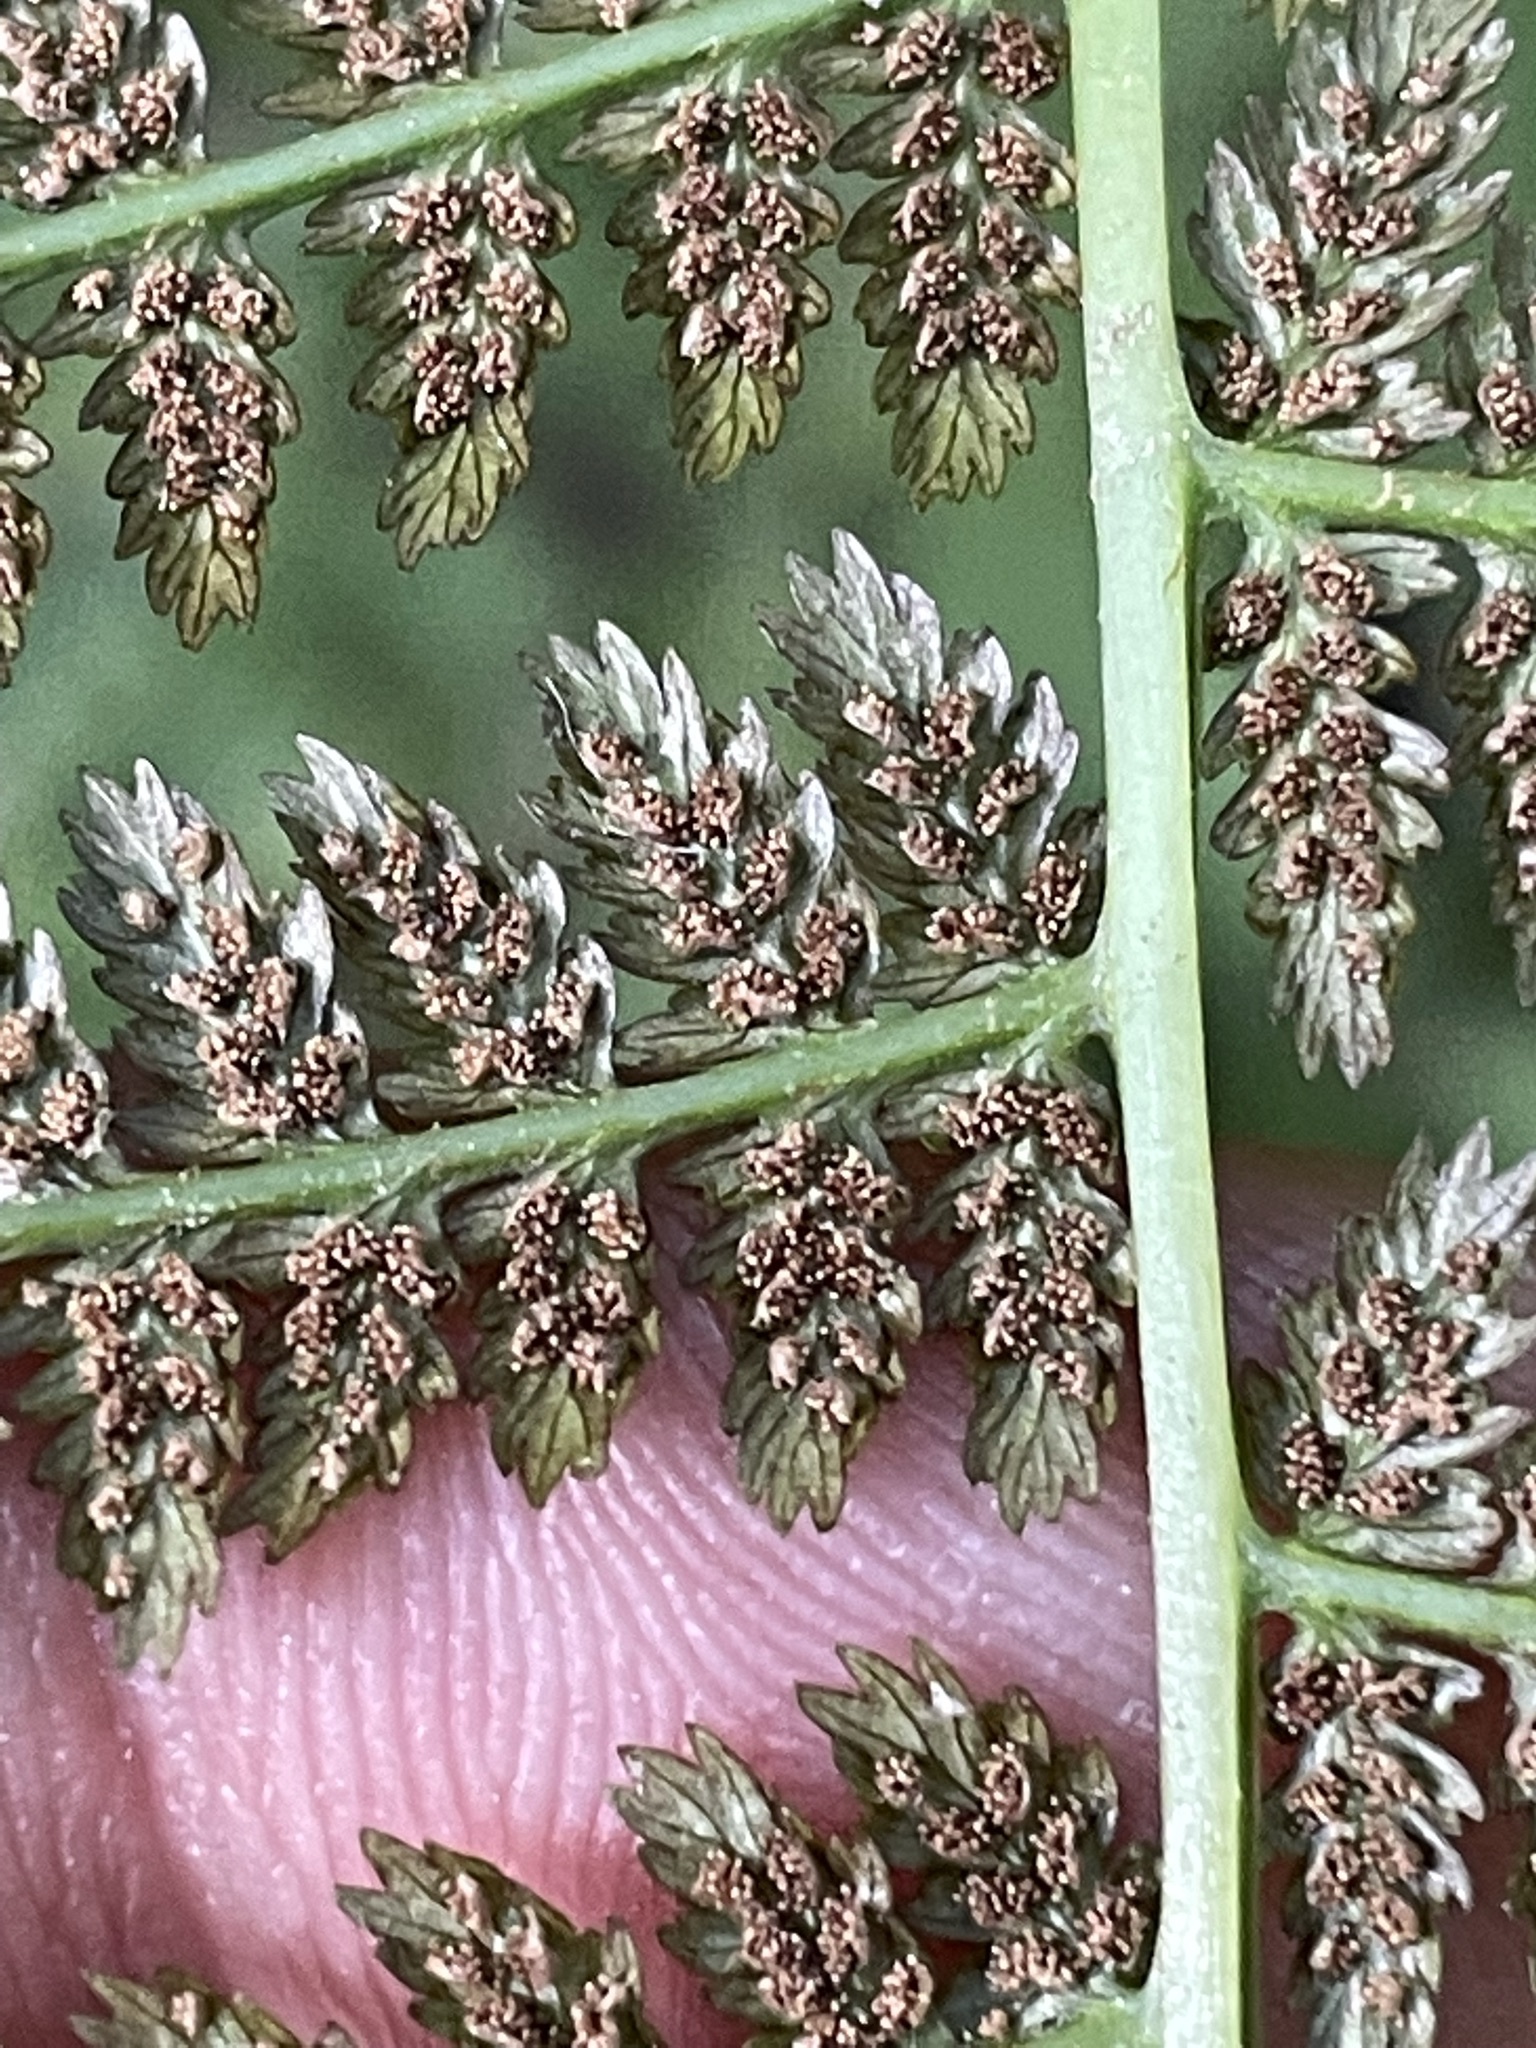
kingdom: Plantae
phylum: Tracheophyta
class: Polypodiopsida
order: Polypodiales
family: Athyriaceae
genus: Athyrium
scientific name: Athyrium filix-femina
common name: Lady fern
